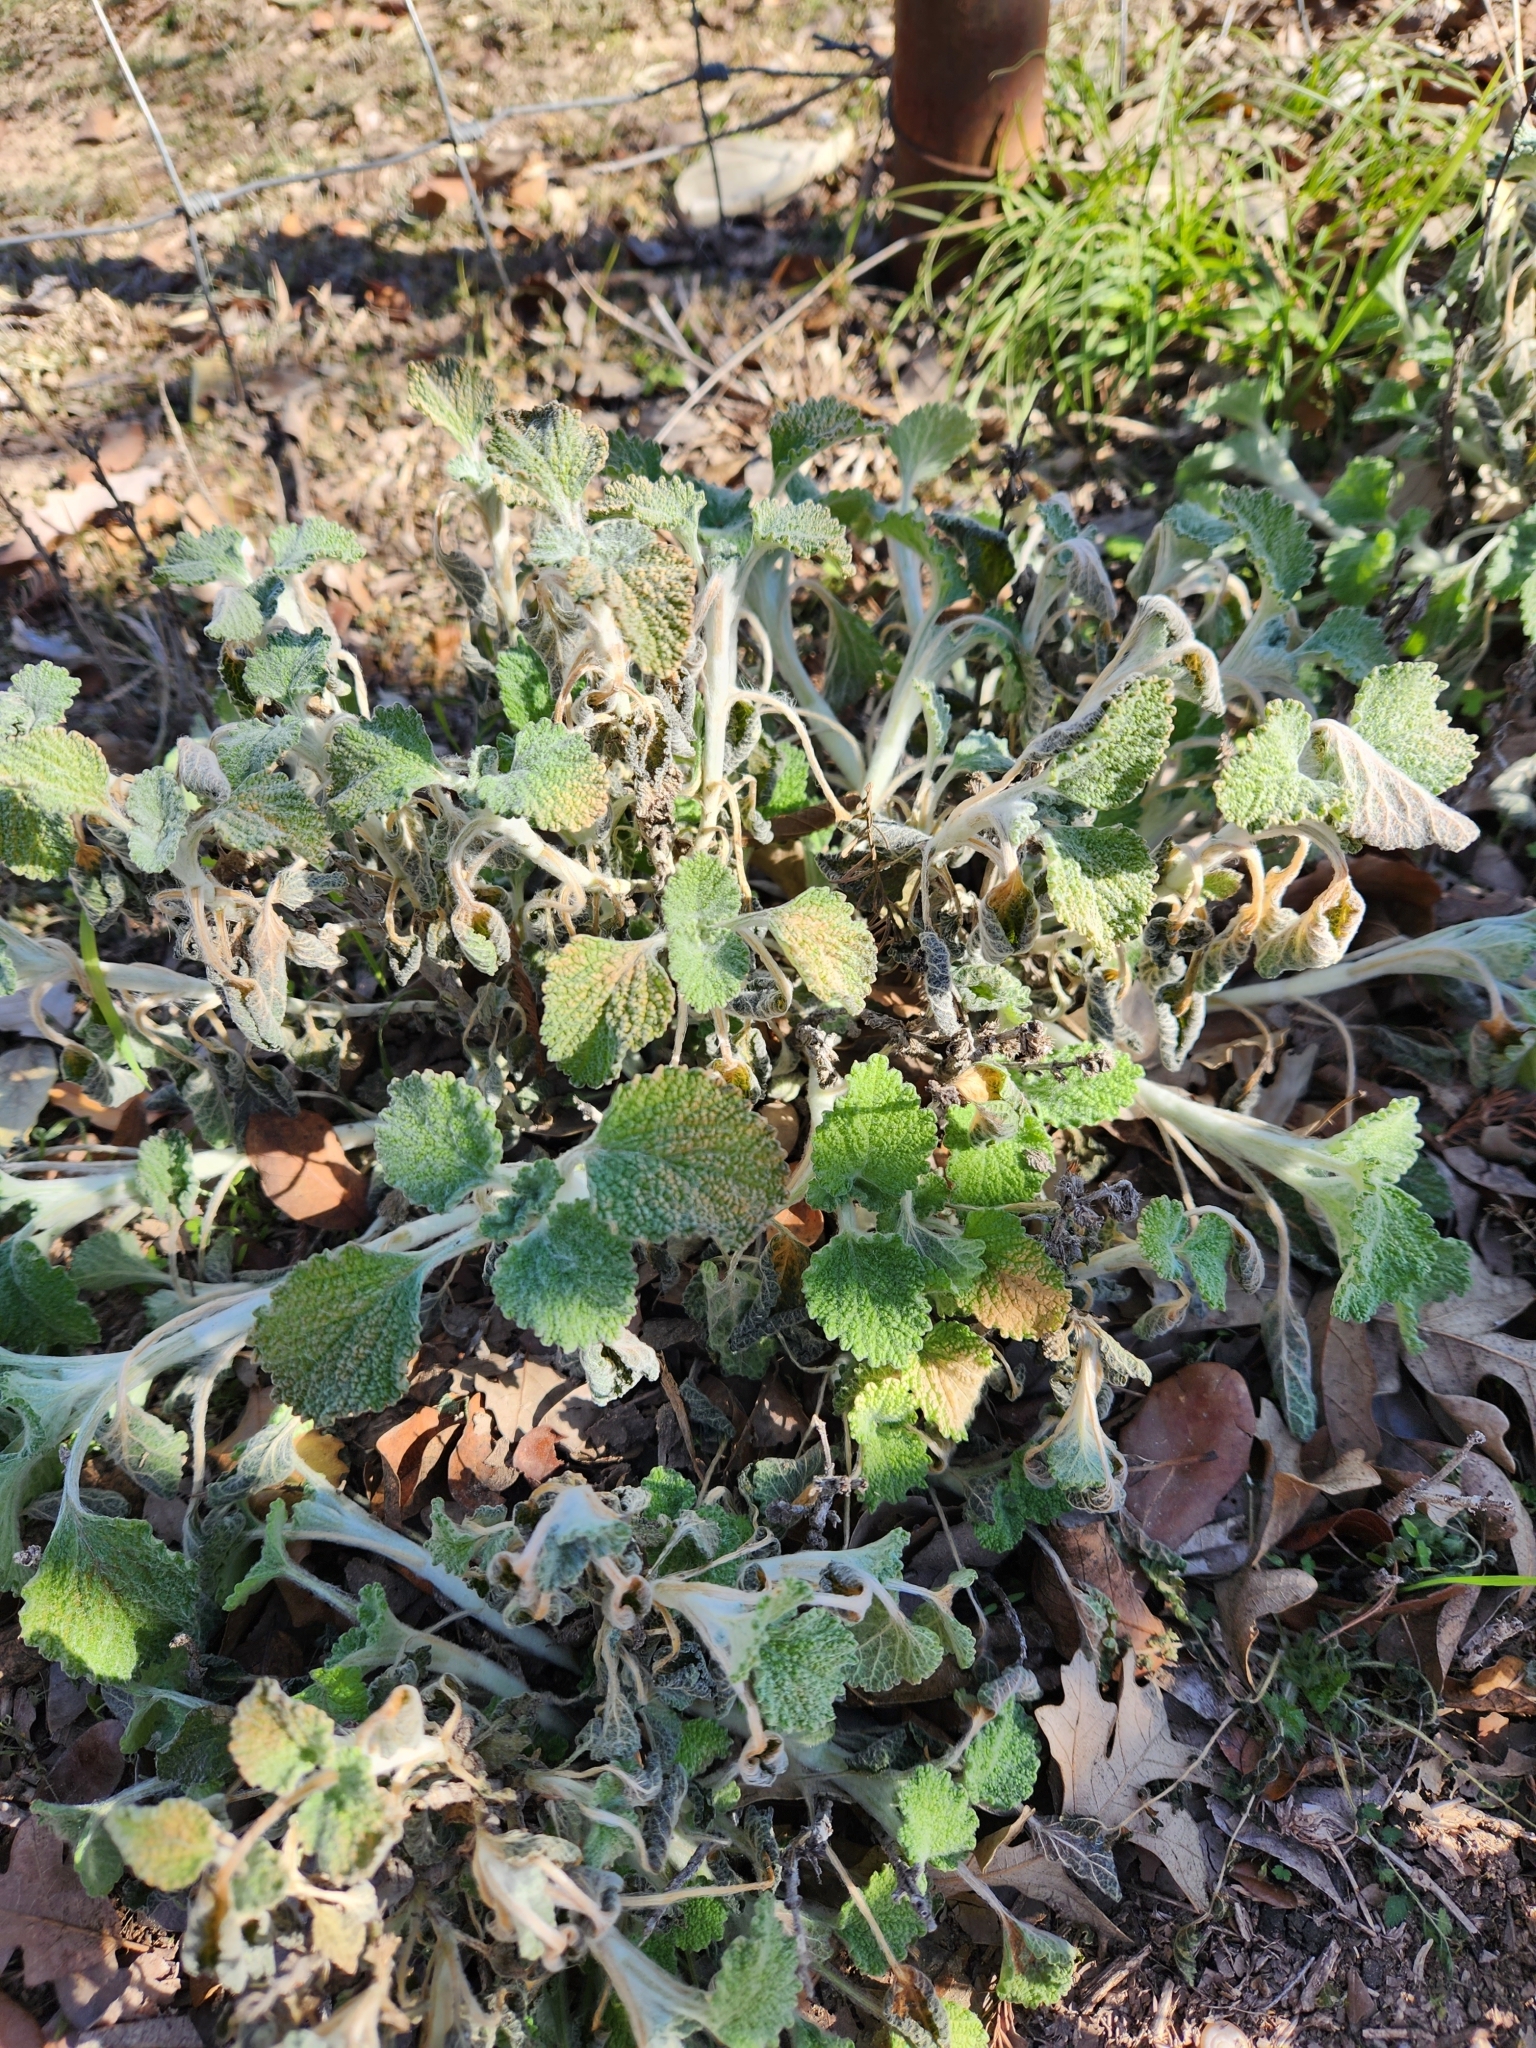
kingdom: Plantae
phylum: Tracheophyta
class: Magnoliopsida
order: Lamiales
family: Lamiaceae
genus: Marrubium
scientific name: Marrubium vulgare
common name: Horehound
